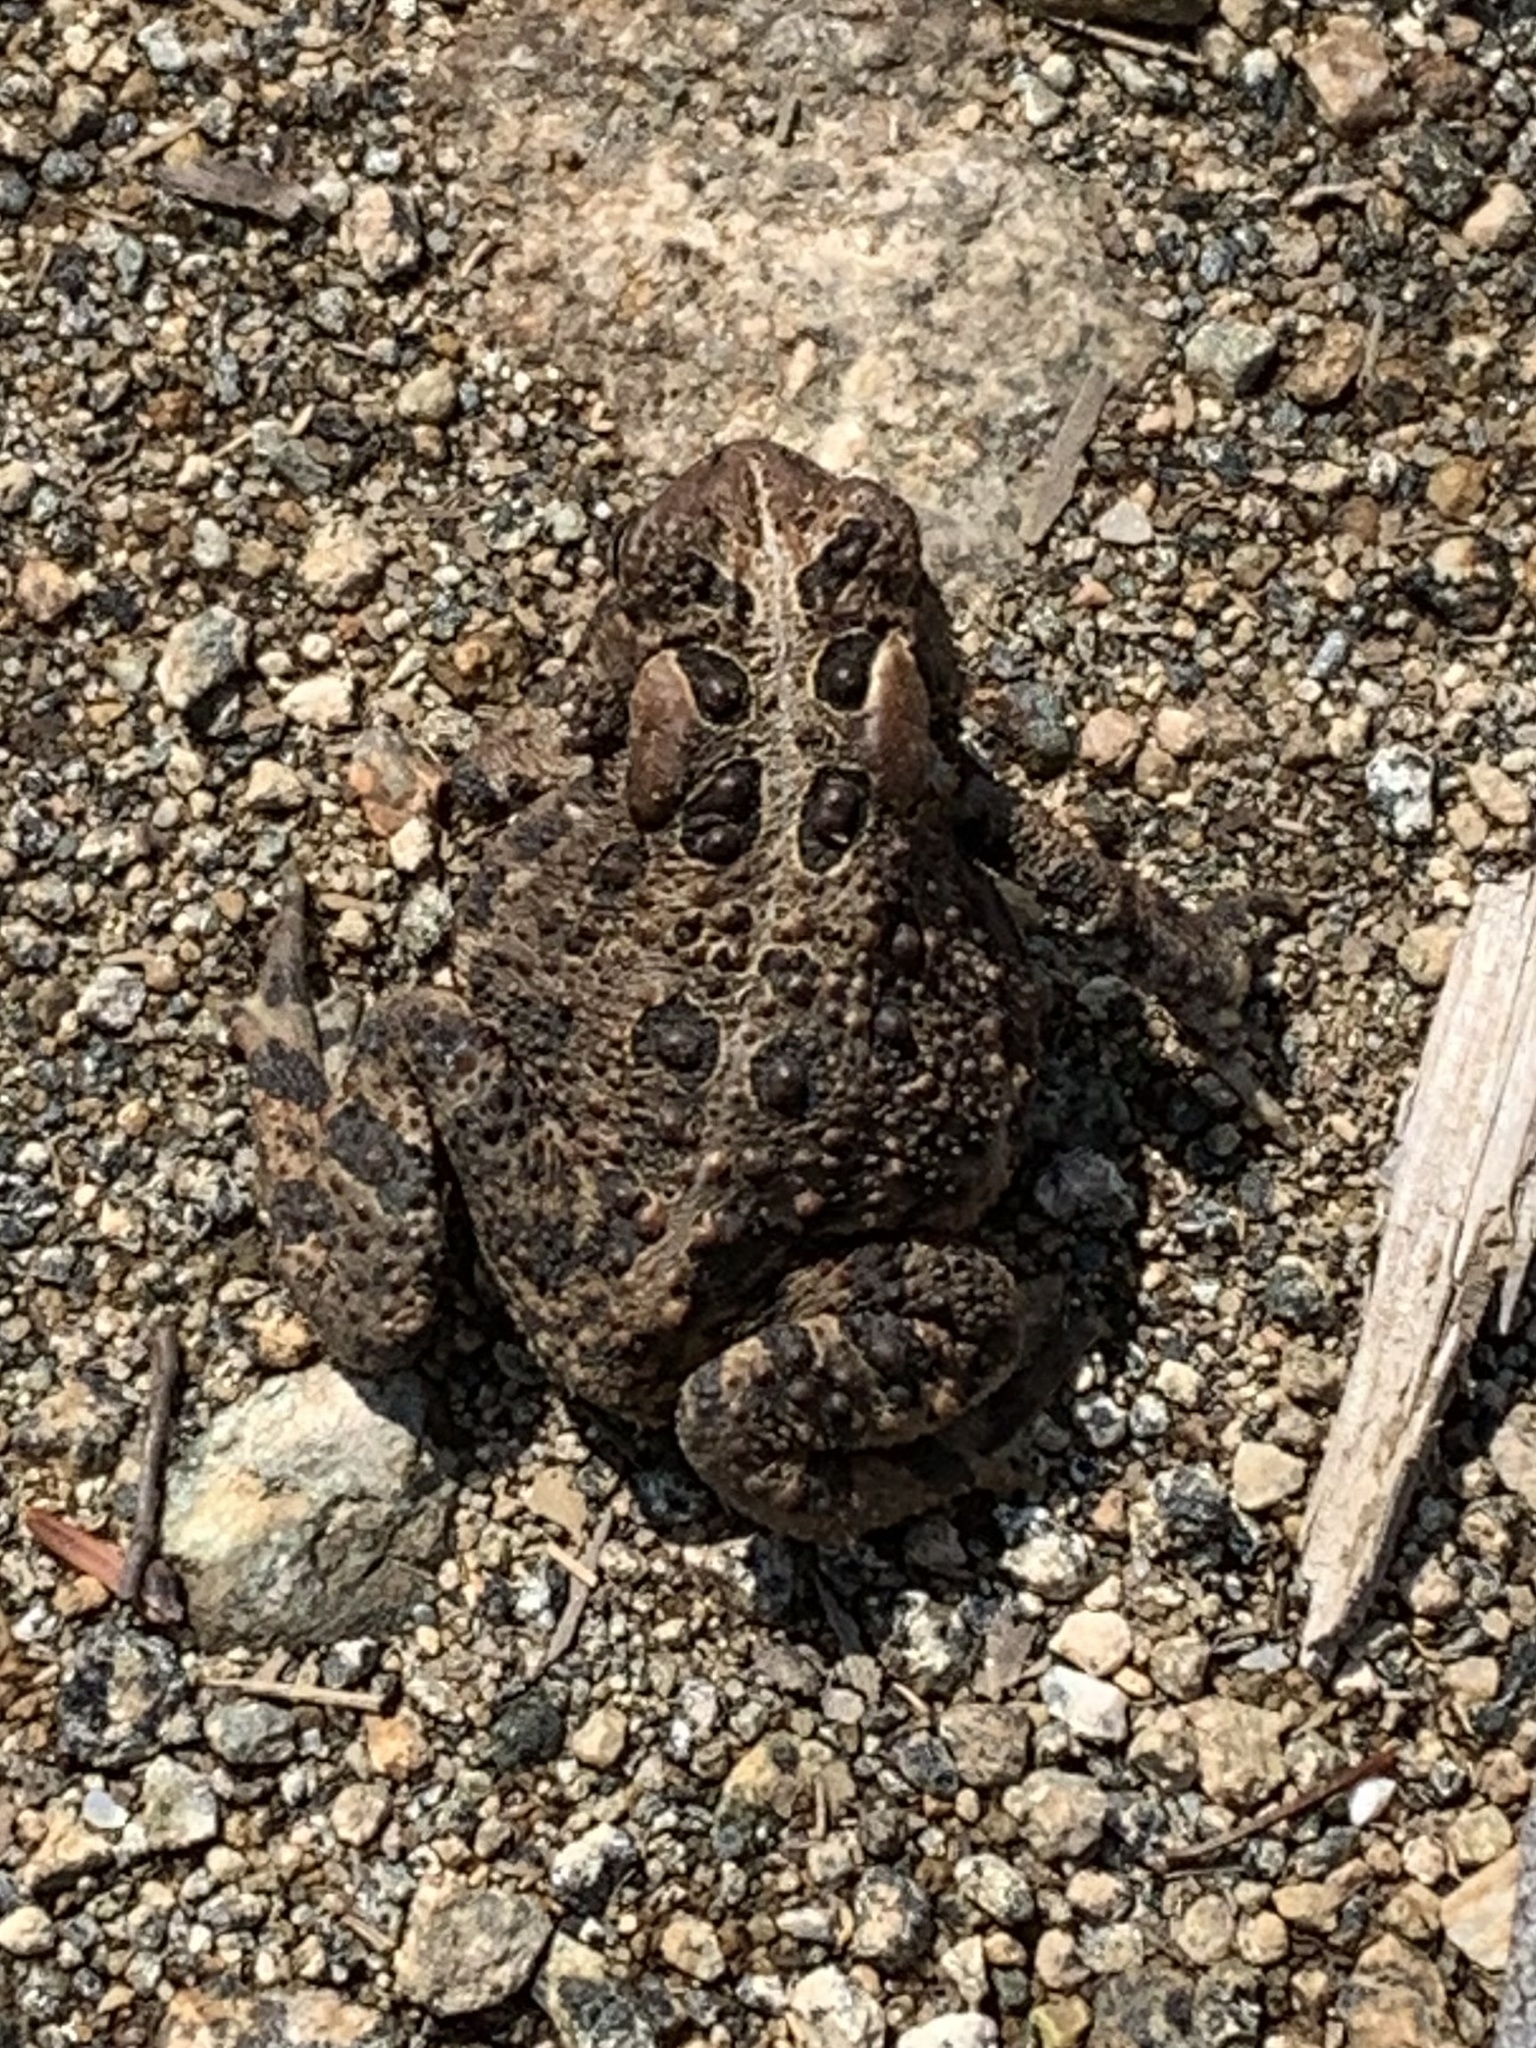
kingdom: Animalia
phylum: Chordata
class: Amphibia
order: Anura
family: Bufonidae
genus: Anaxyrus
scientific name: Anaxyrus americanus
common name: American toad
